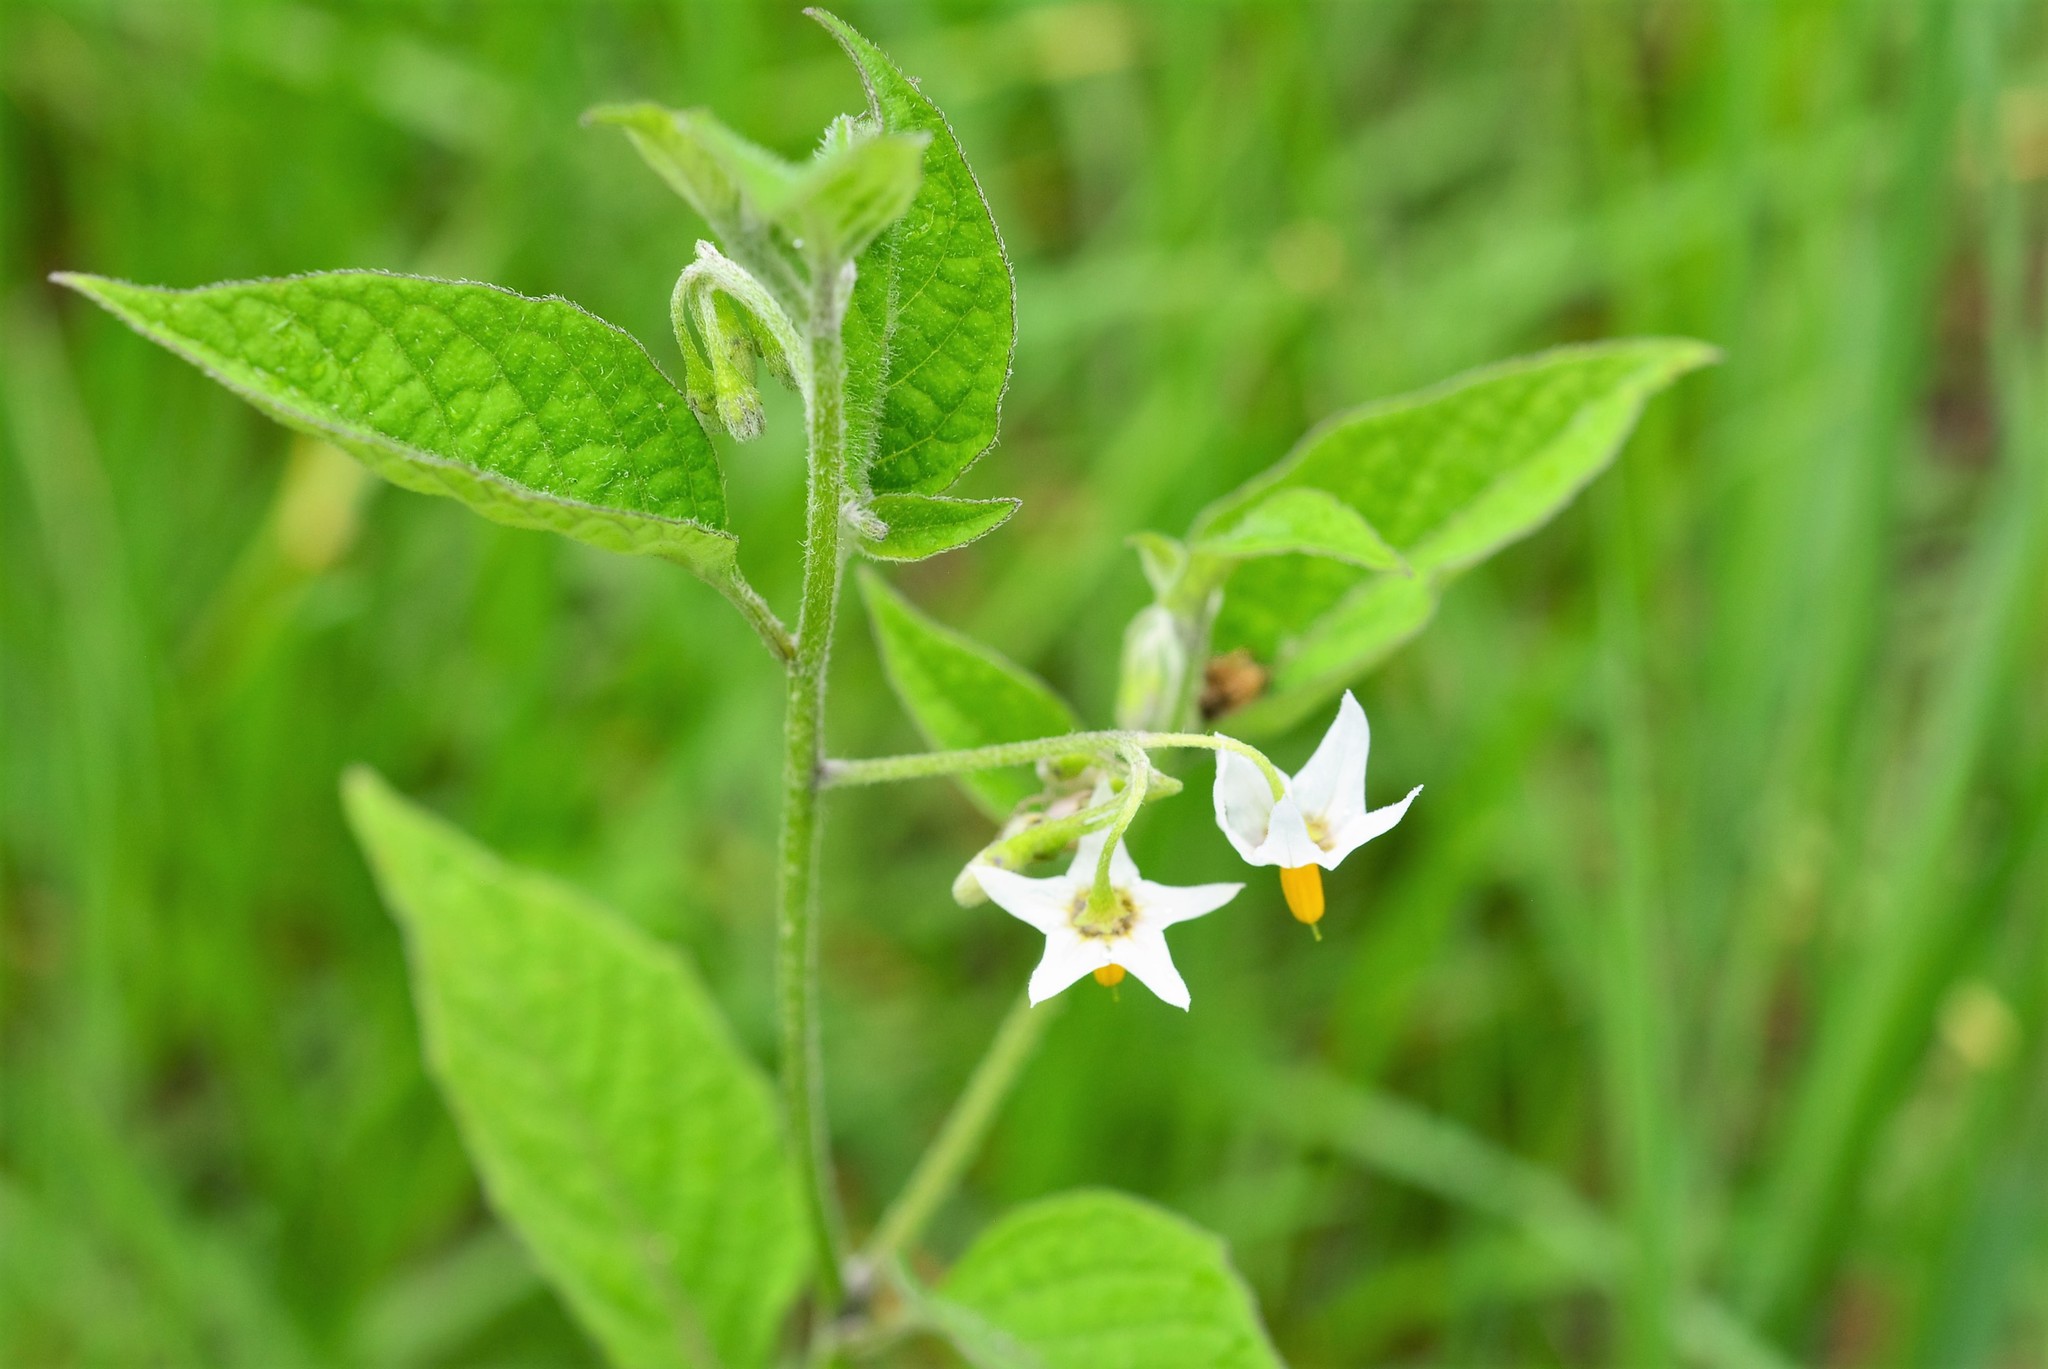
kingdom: Plantae
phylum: Tracheophyta
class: Magnoliopsida
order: Solanales
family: Solanaceae
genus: Solanum
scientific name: Solanum nigrescens
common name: Divine nightshade
